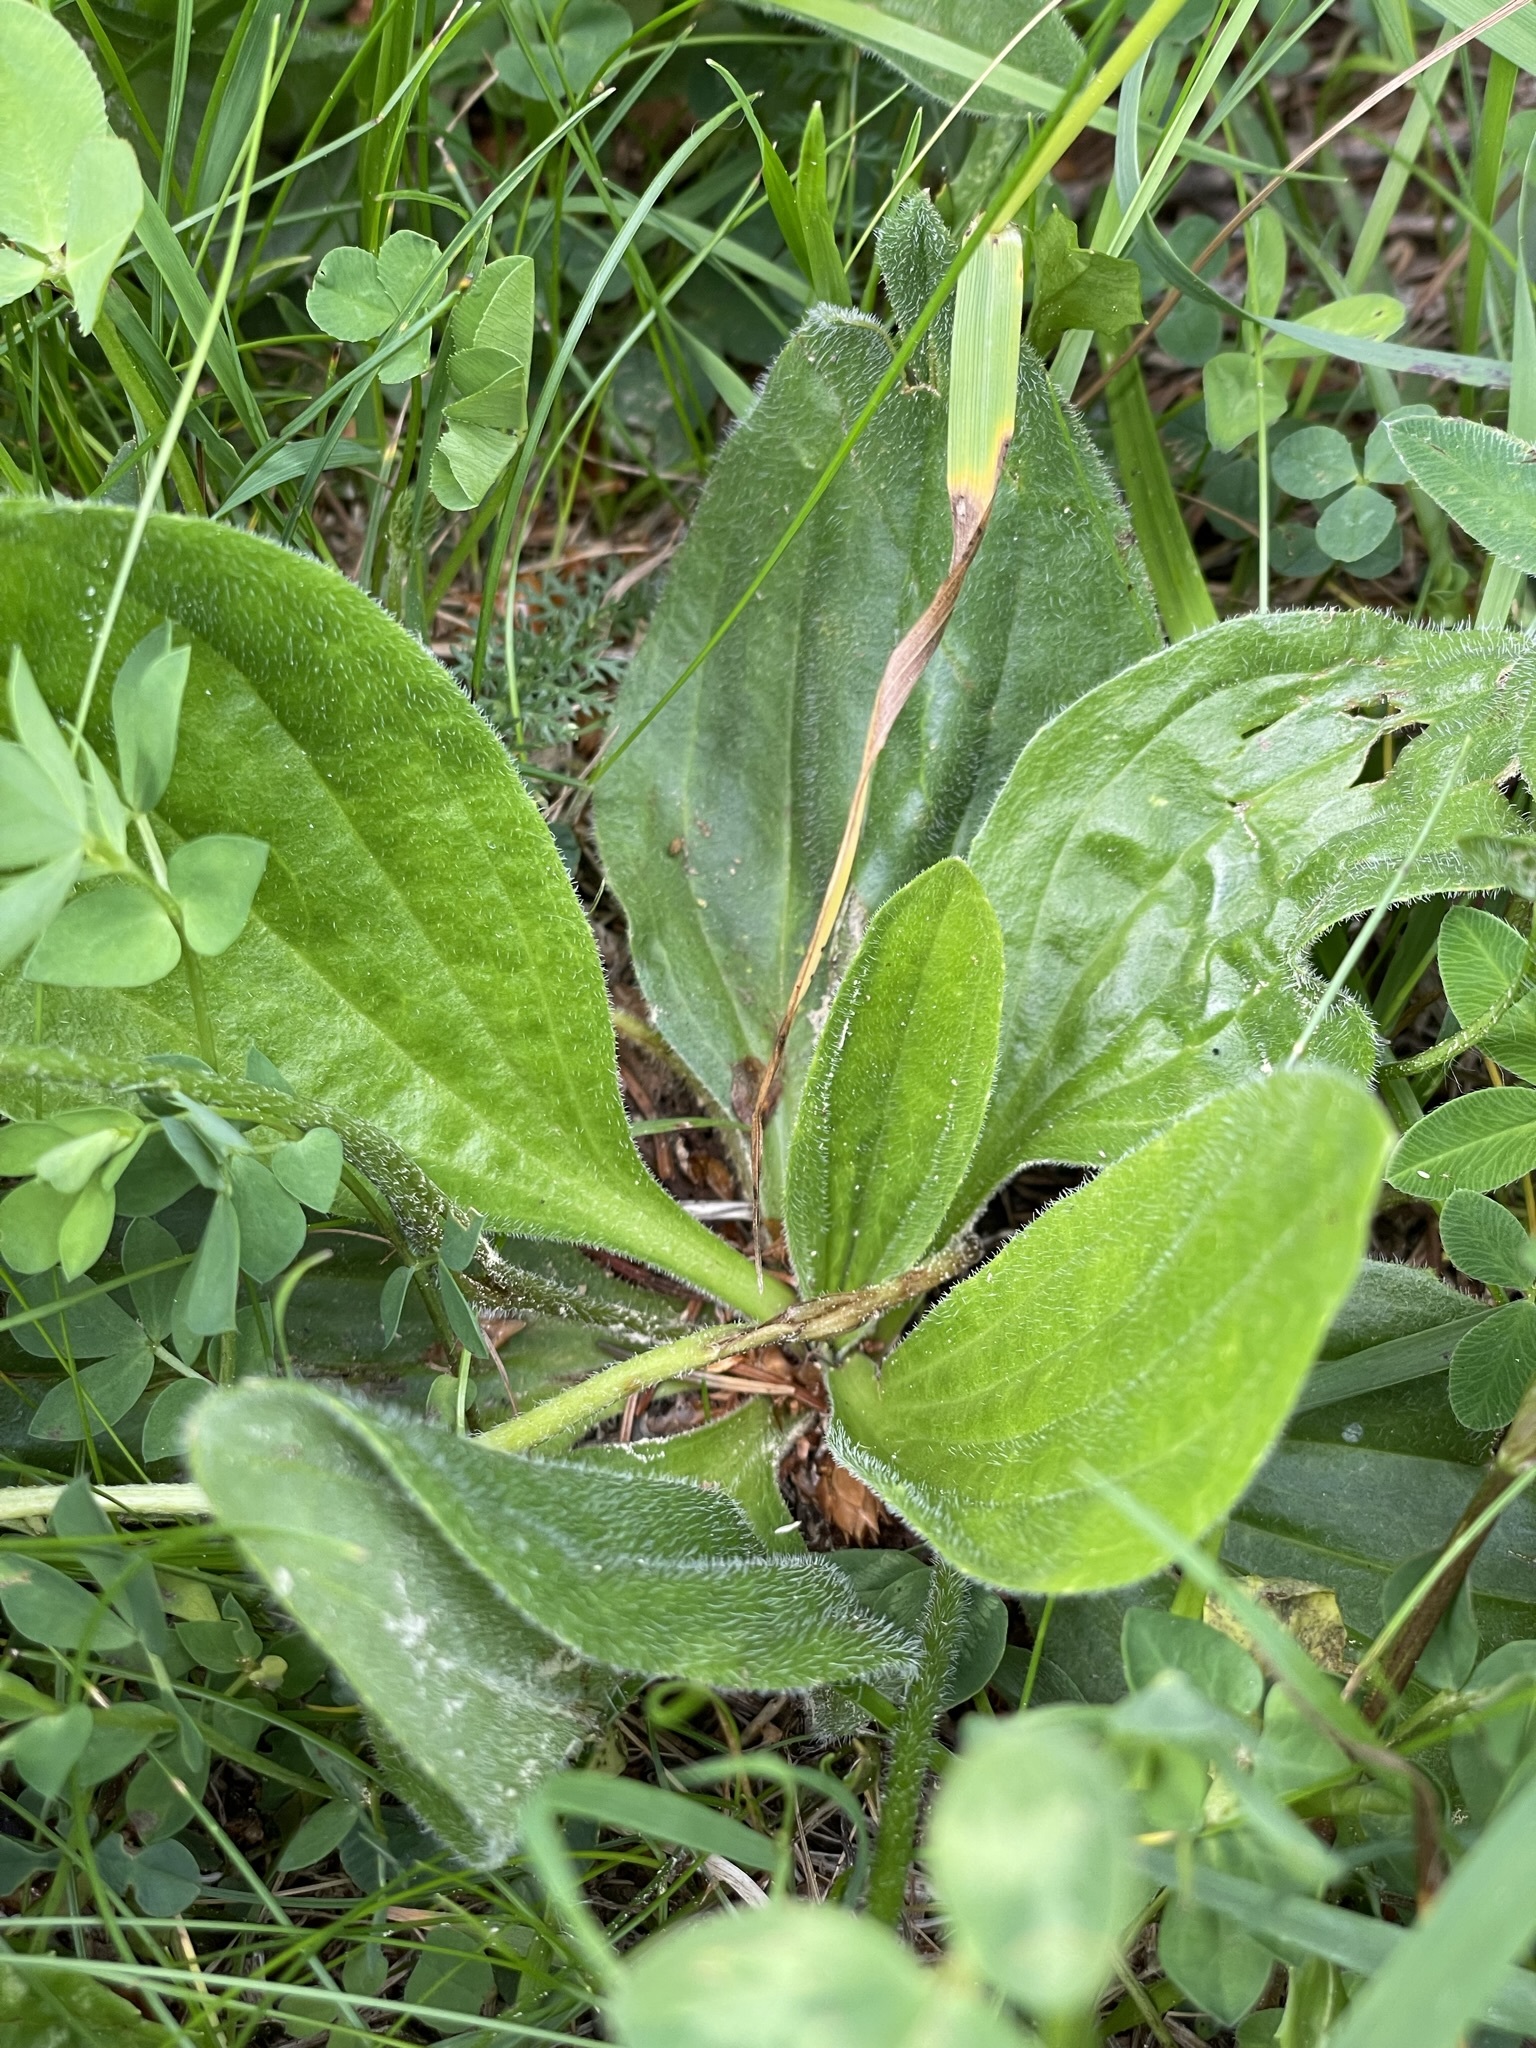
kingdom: Plantae
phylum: Tracheophyta
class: Magnoliopsida
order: Lamiales
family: Plantaginaceae
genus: Plantago
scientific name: Plantago media
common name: Hoary plantain
